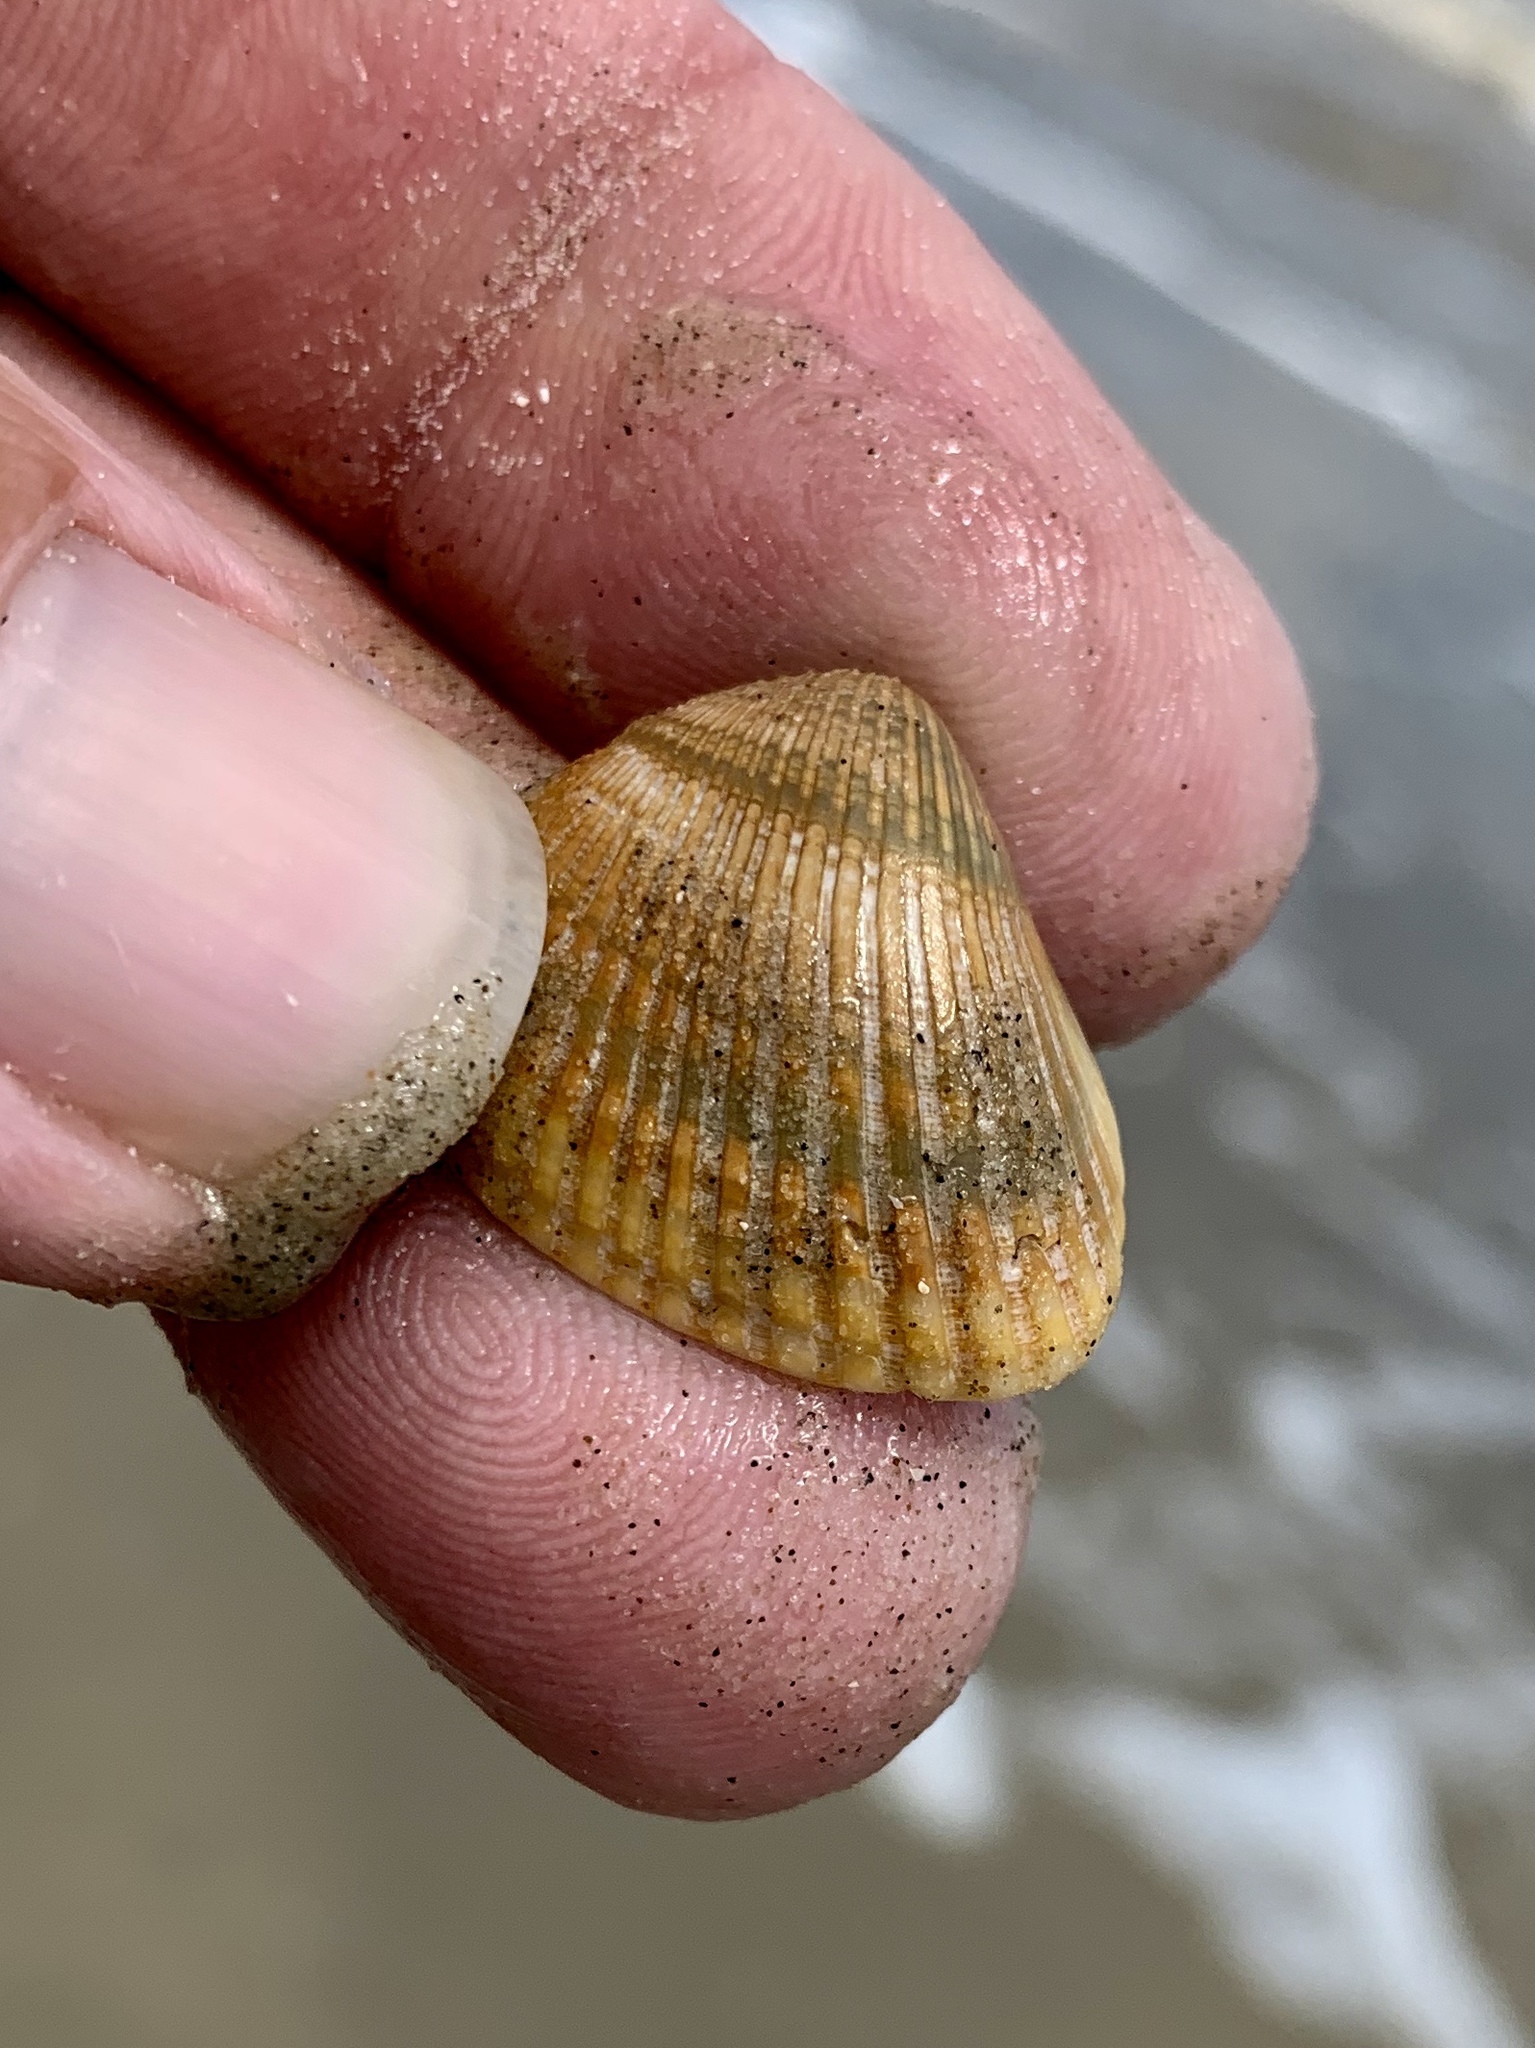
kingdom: Animalia
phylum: Mollusca
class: Bivalvia
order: Arcida
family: Noetiidae
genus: Noetia
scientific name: Noetia ponderosa
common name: Ponderous ark
